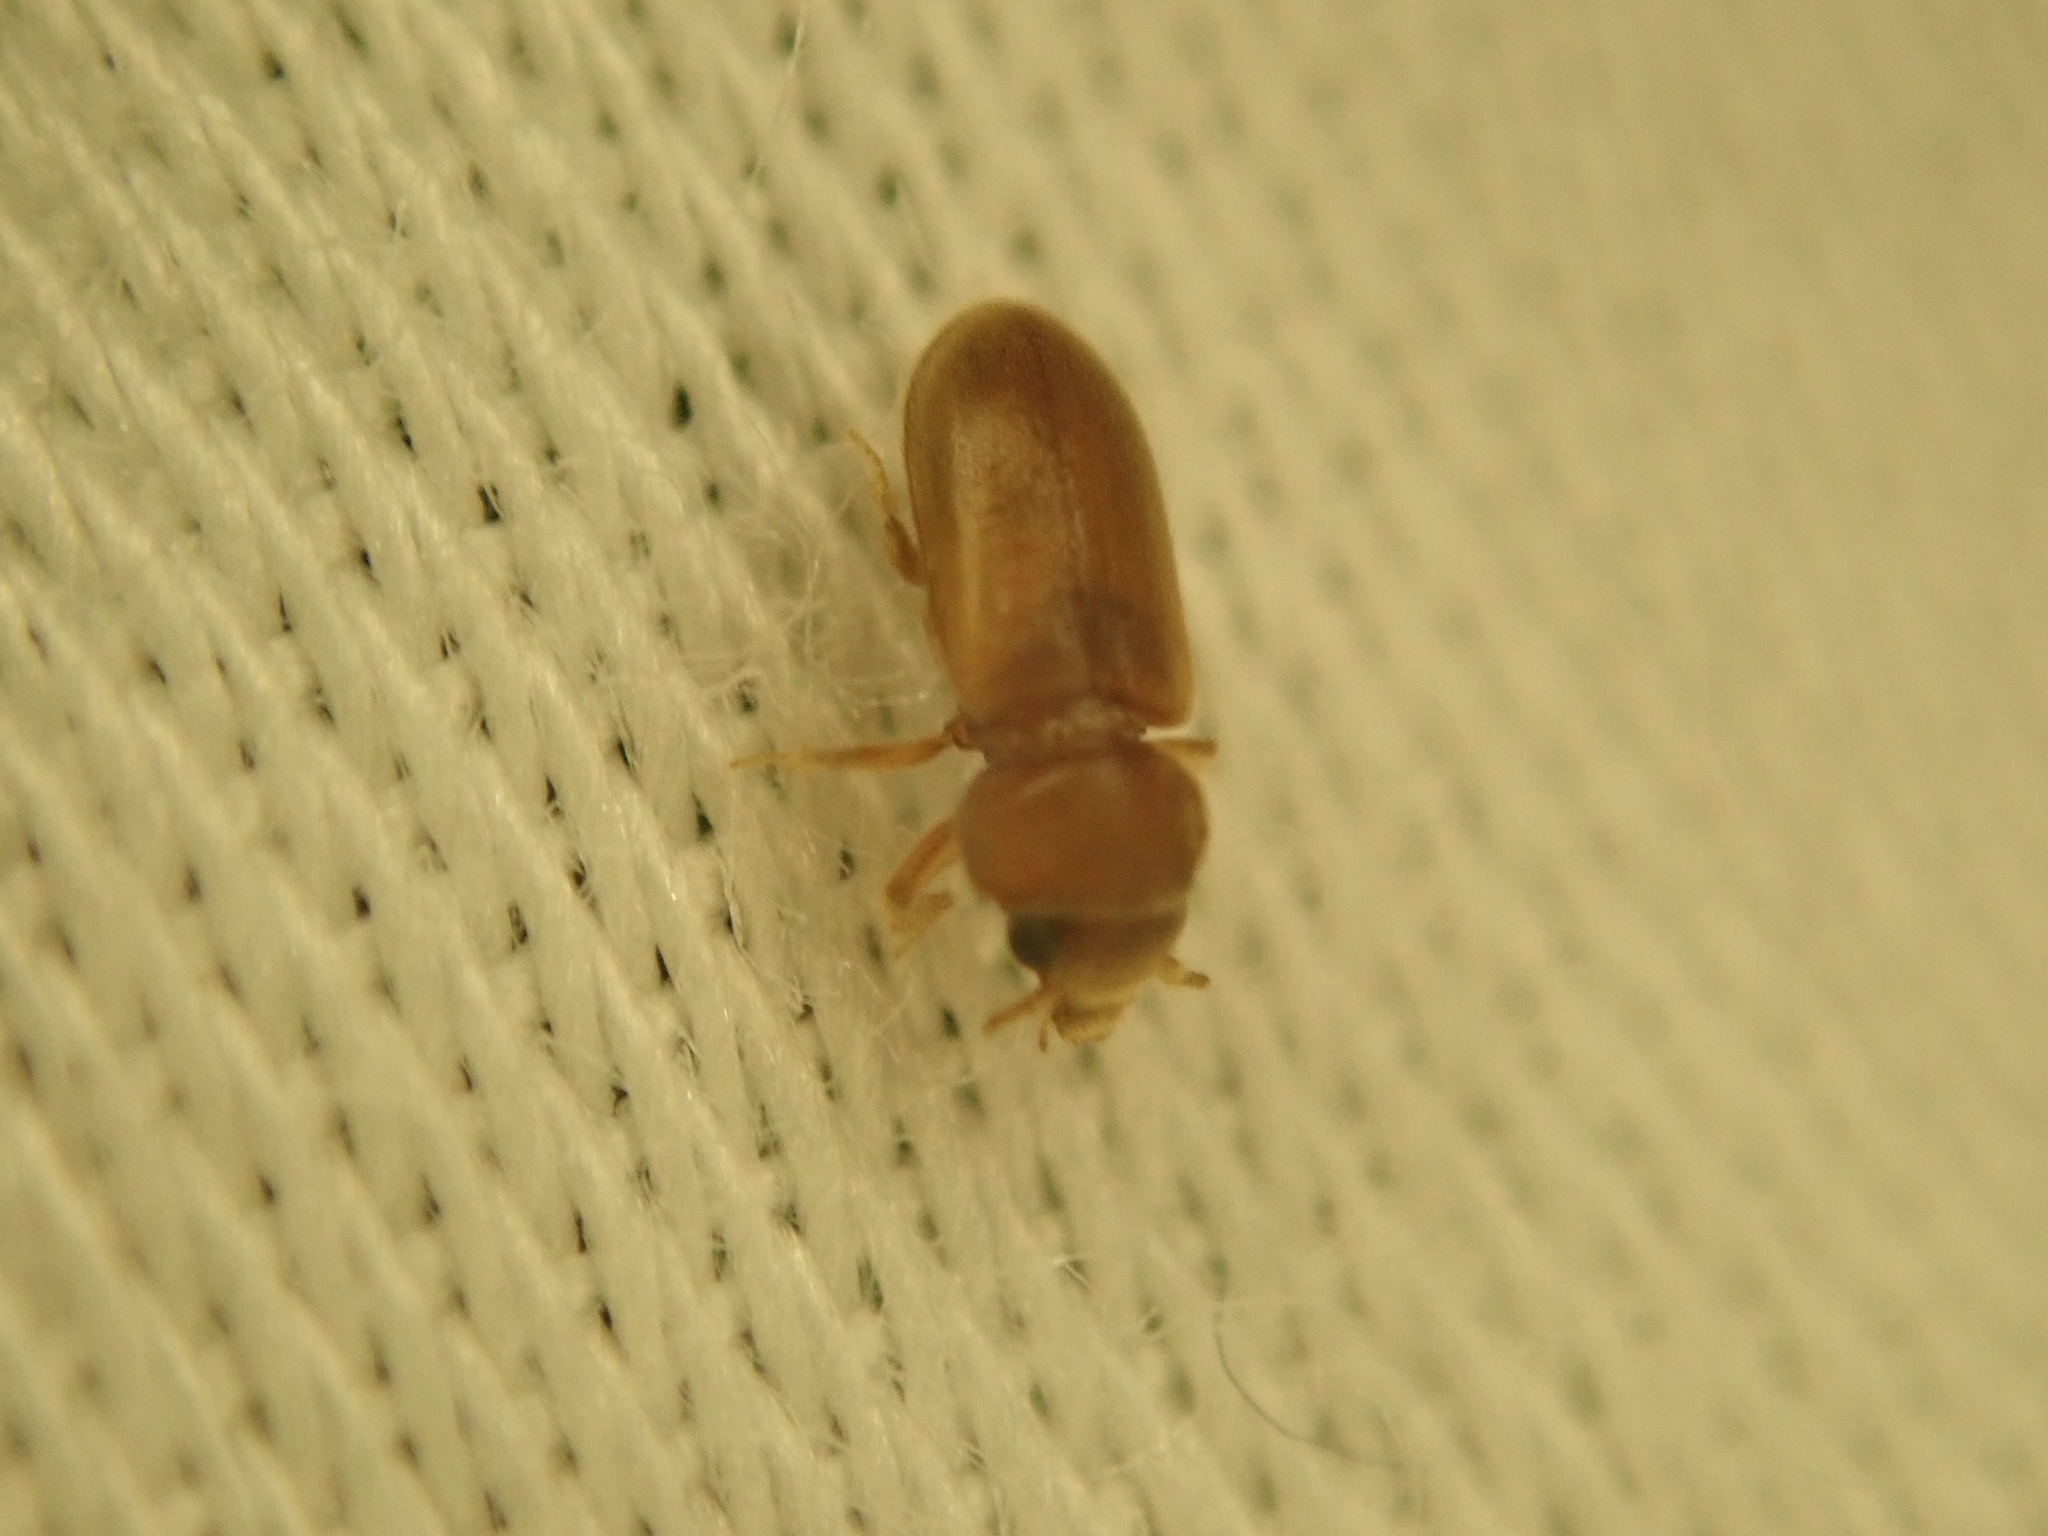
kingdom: Animalia
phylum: Arthropoda
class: Insecta
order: Coleoptera
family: Heteroceridae
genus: Tropicus
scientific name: Tropicus pusillus
